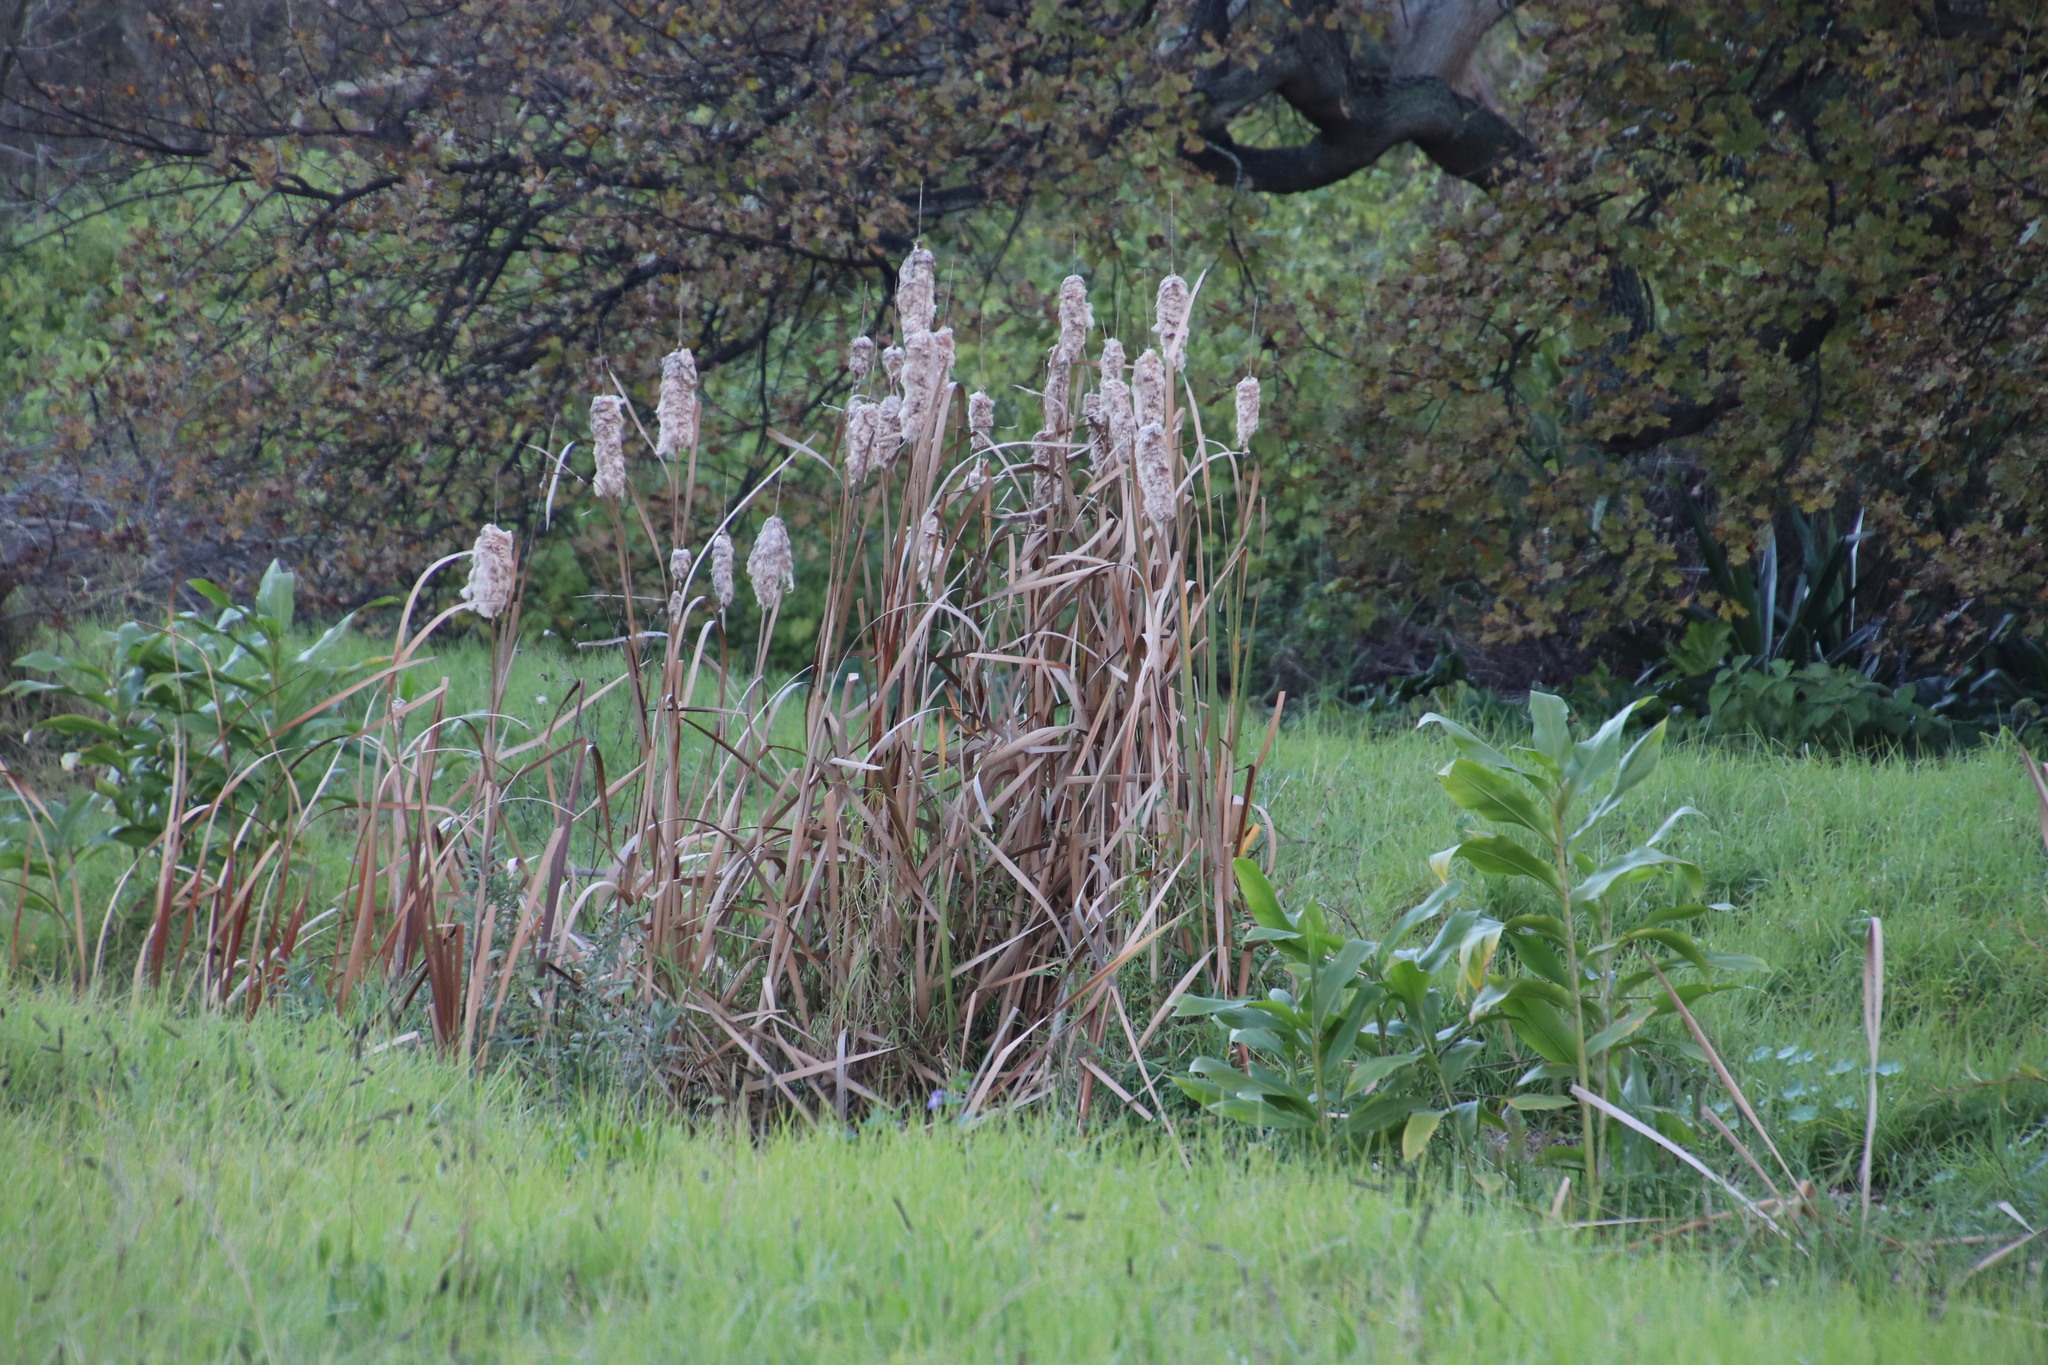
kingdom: Plantae
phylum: Tracheophyta
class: Liliopsida
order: Poales
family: Typhaceae
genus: Typha
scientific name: Typha capensis
